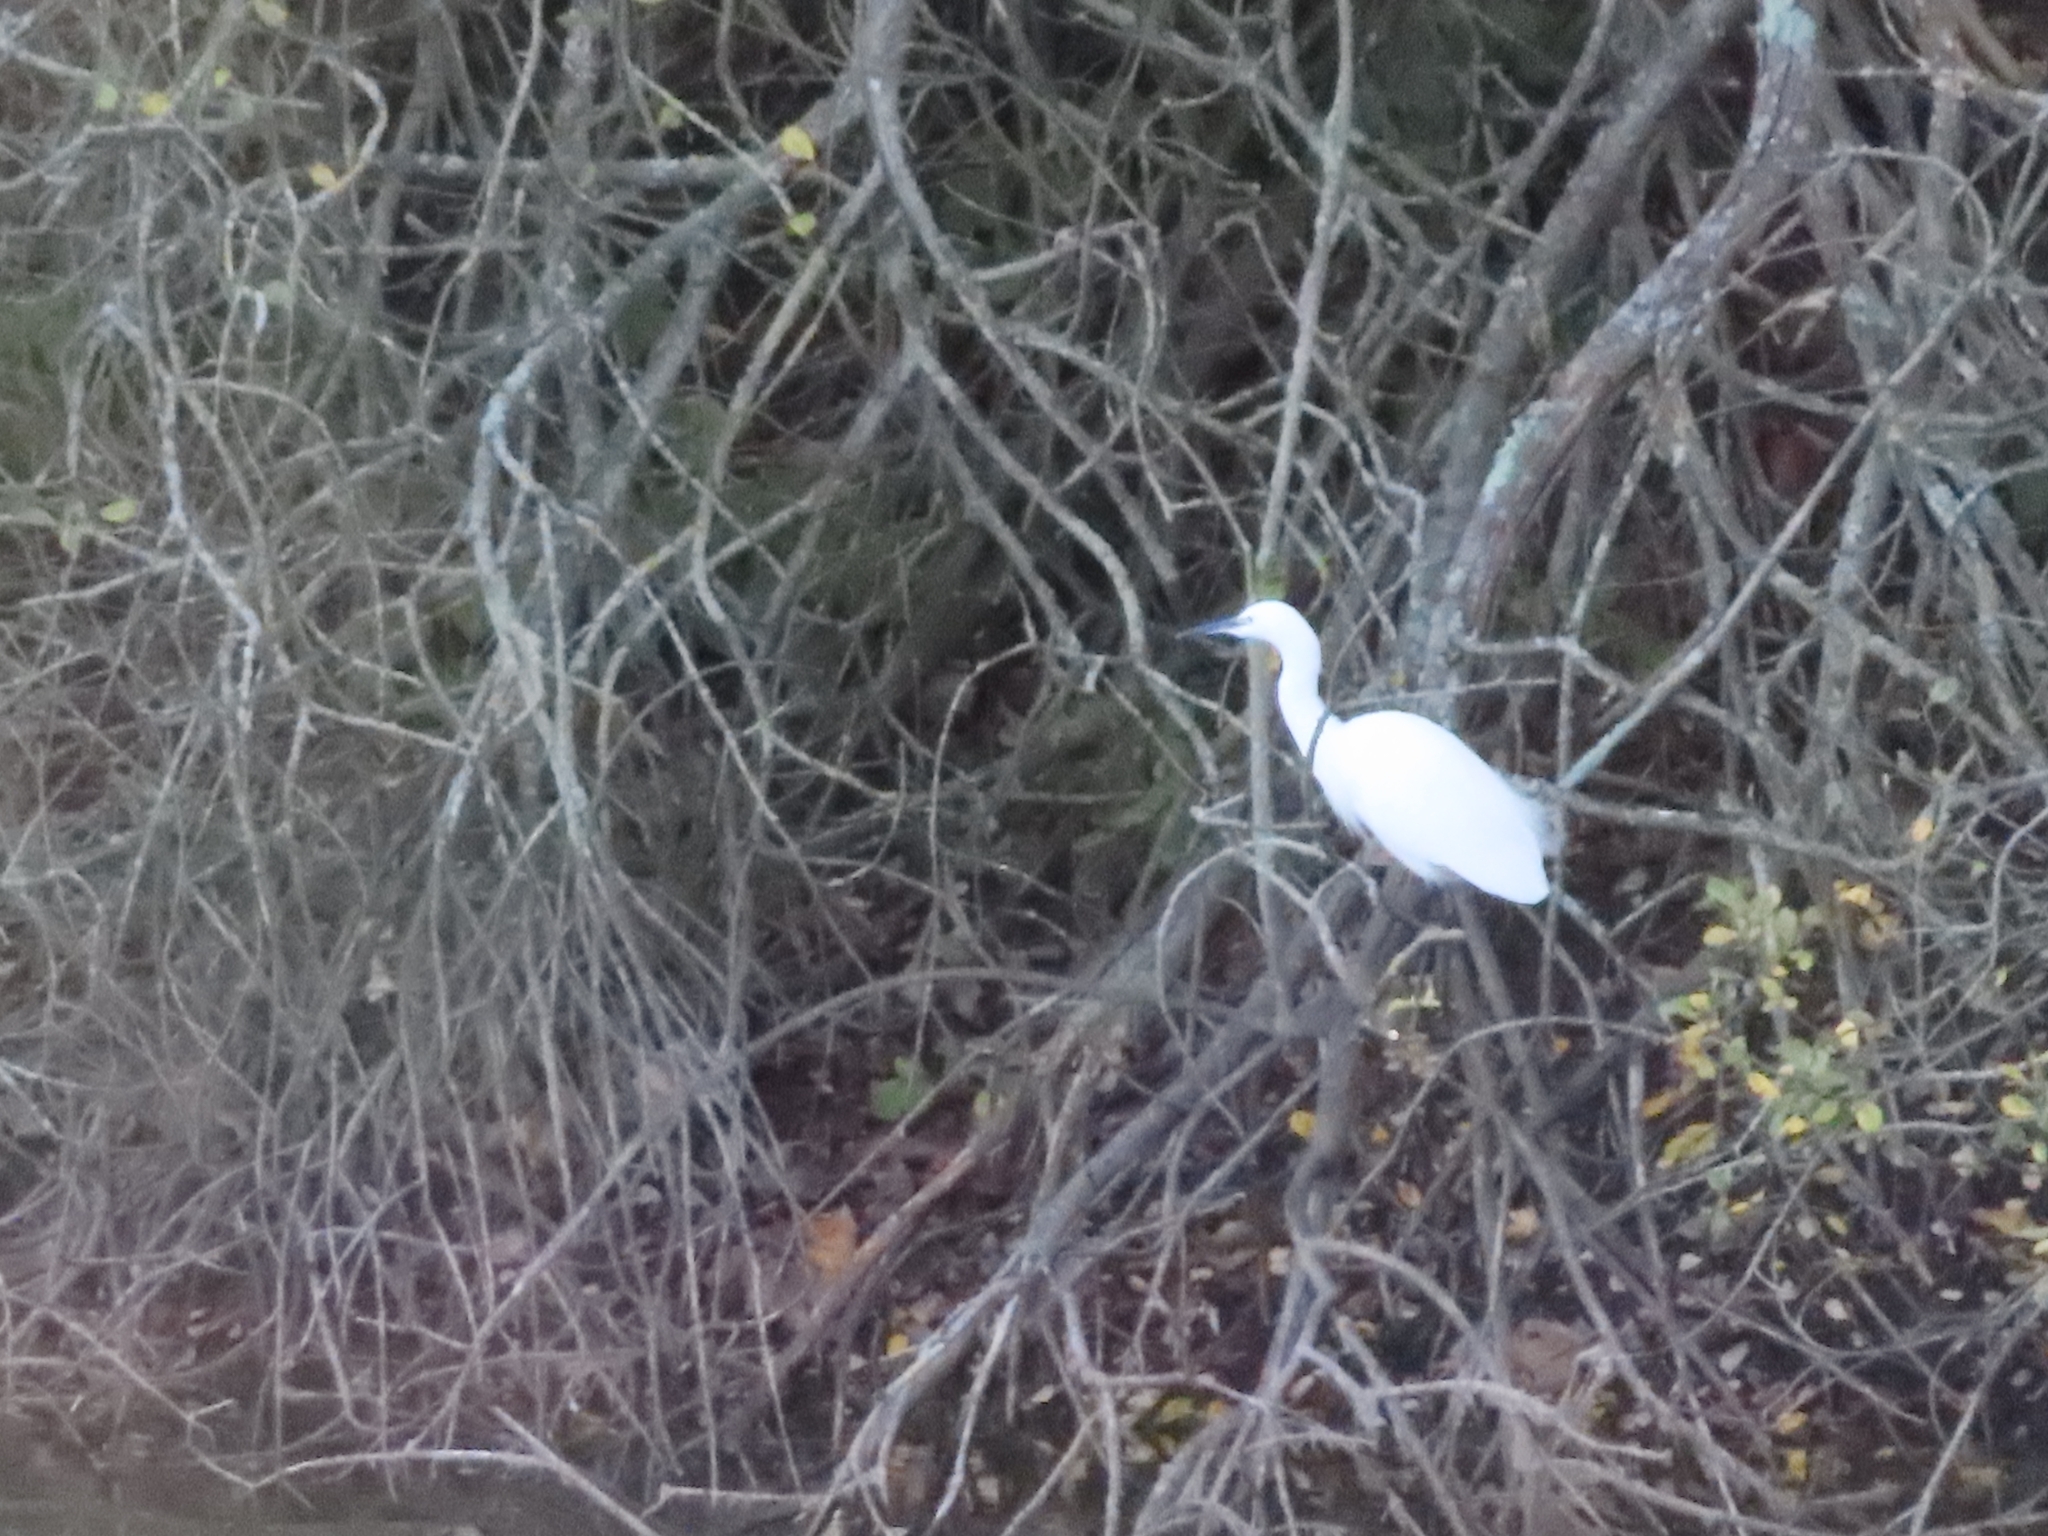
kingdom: Animalia
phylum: Chordata
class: Aves
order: Pelecaniformes
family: Ardeidae
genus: Egretta
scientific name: Egretta garzetta
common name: Little egret
